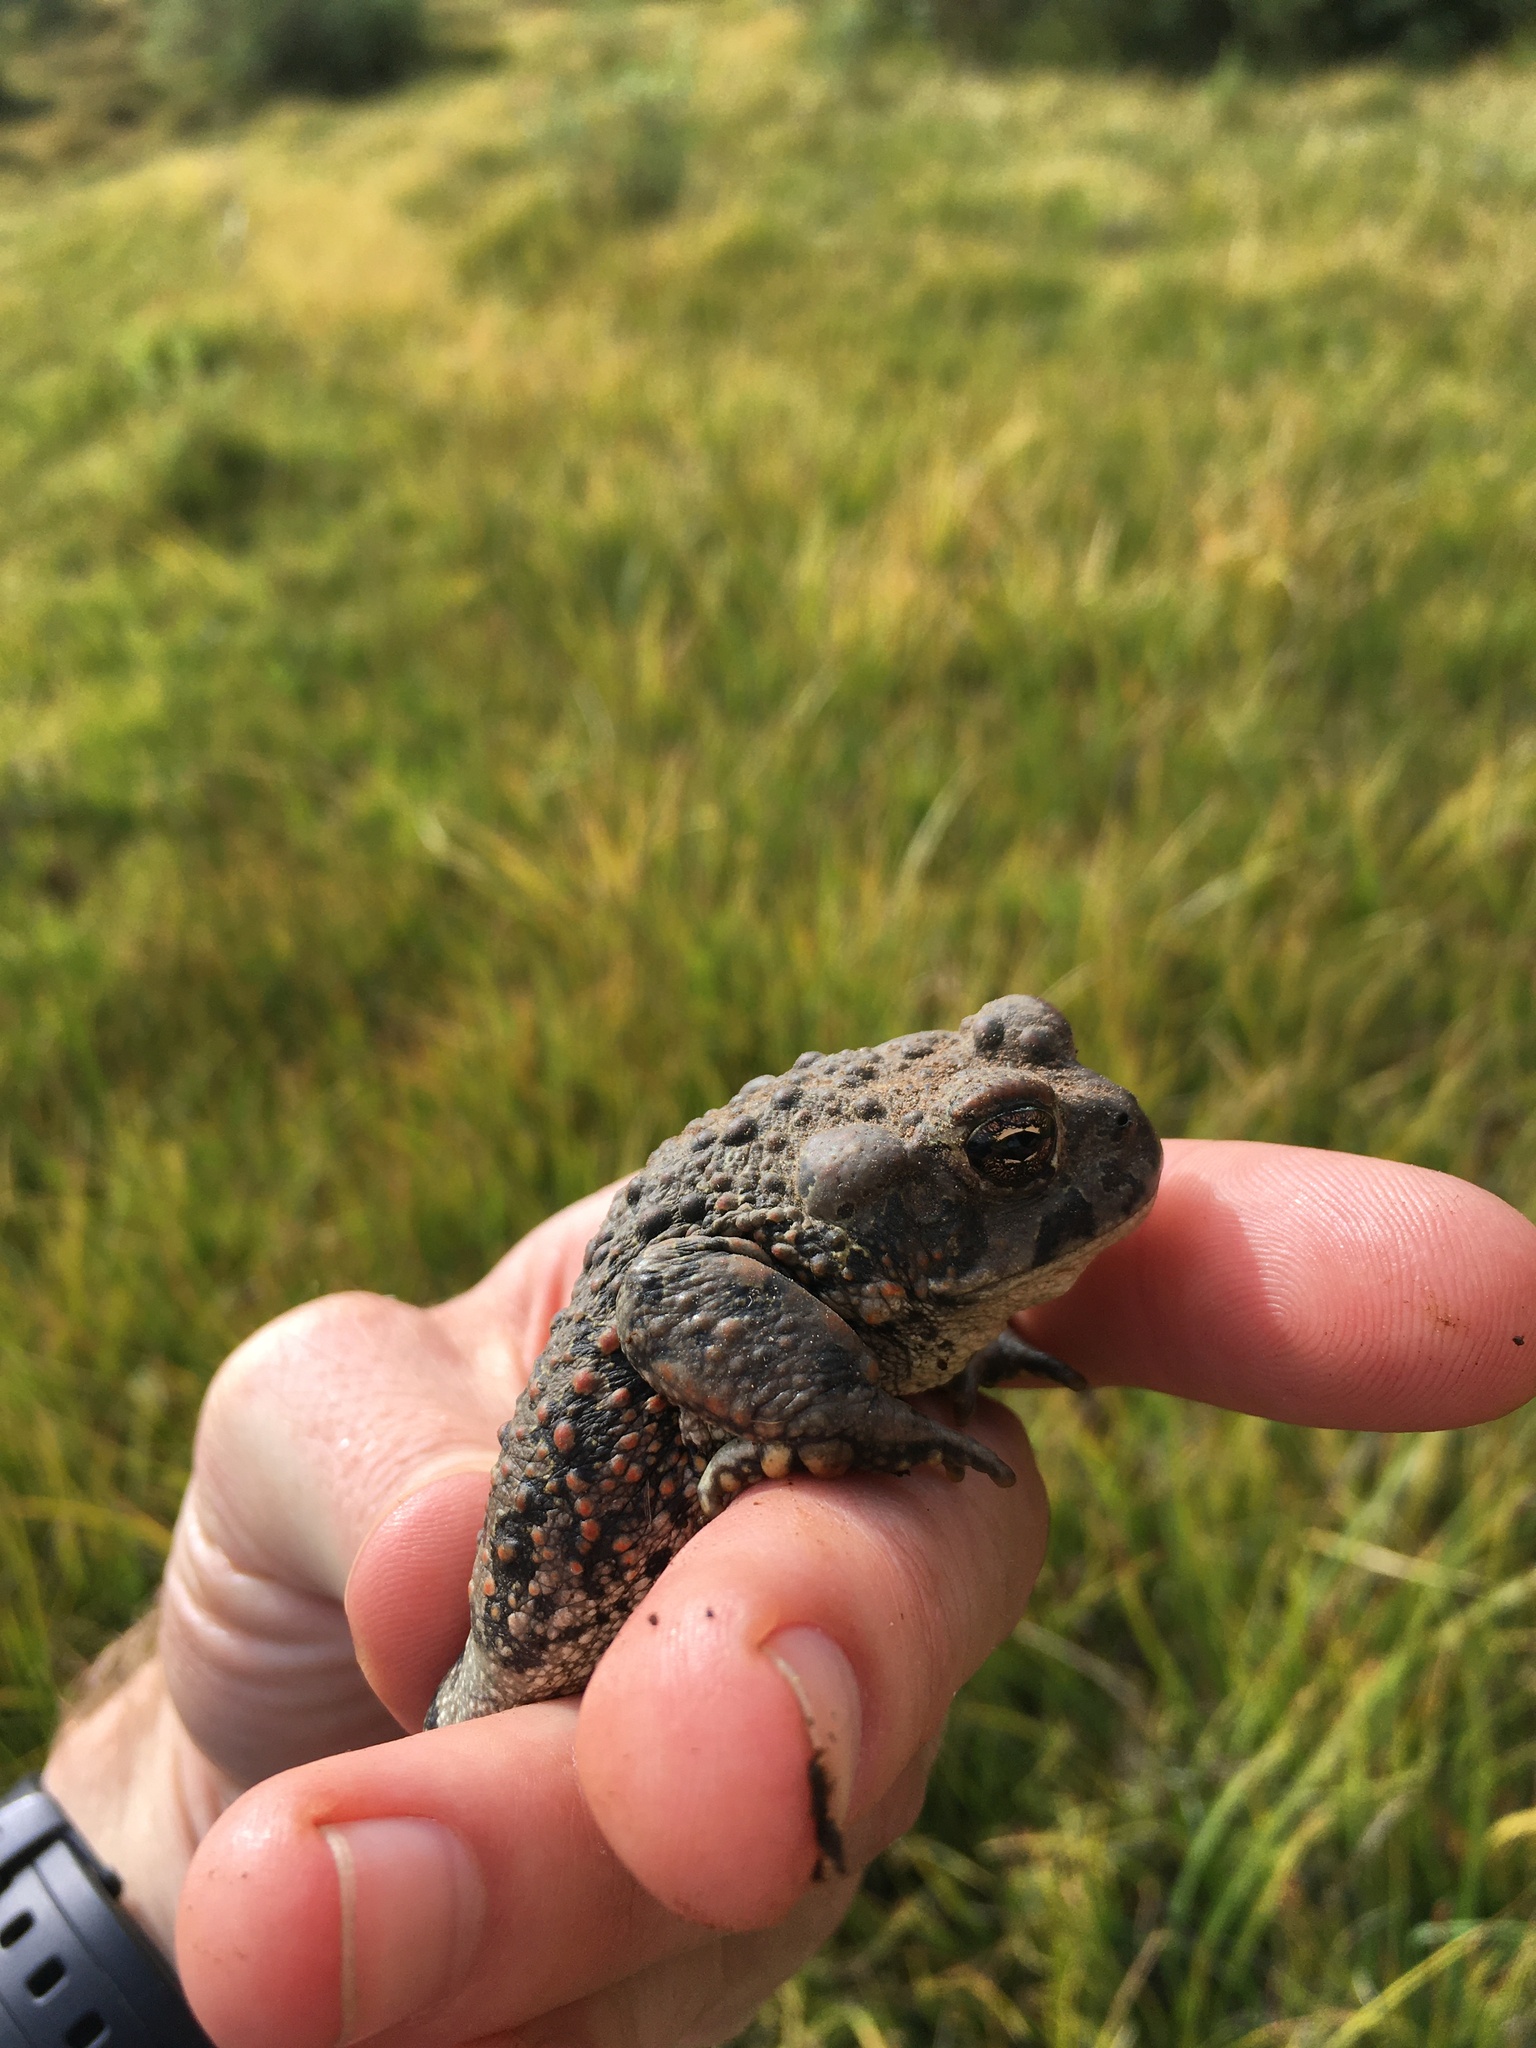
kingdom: Animalia
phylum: Chordata
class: Amphibia
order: Anura
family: Bufonidae
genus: Anaxyrus
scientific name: Anaxyrus boreas
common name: Western toad
